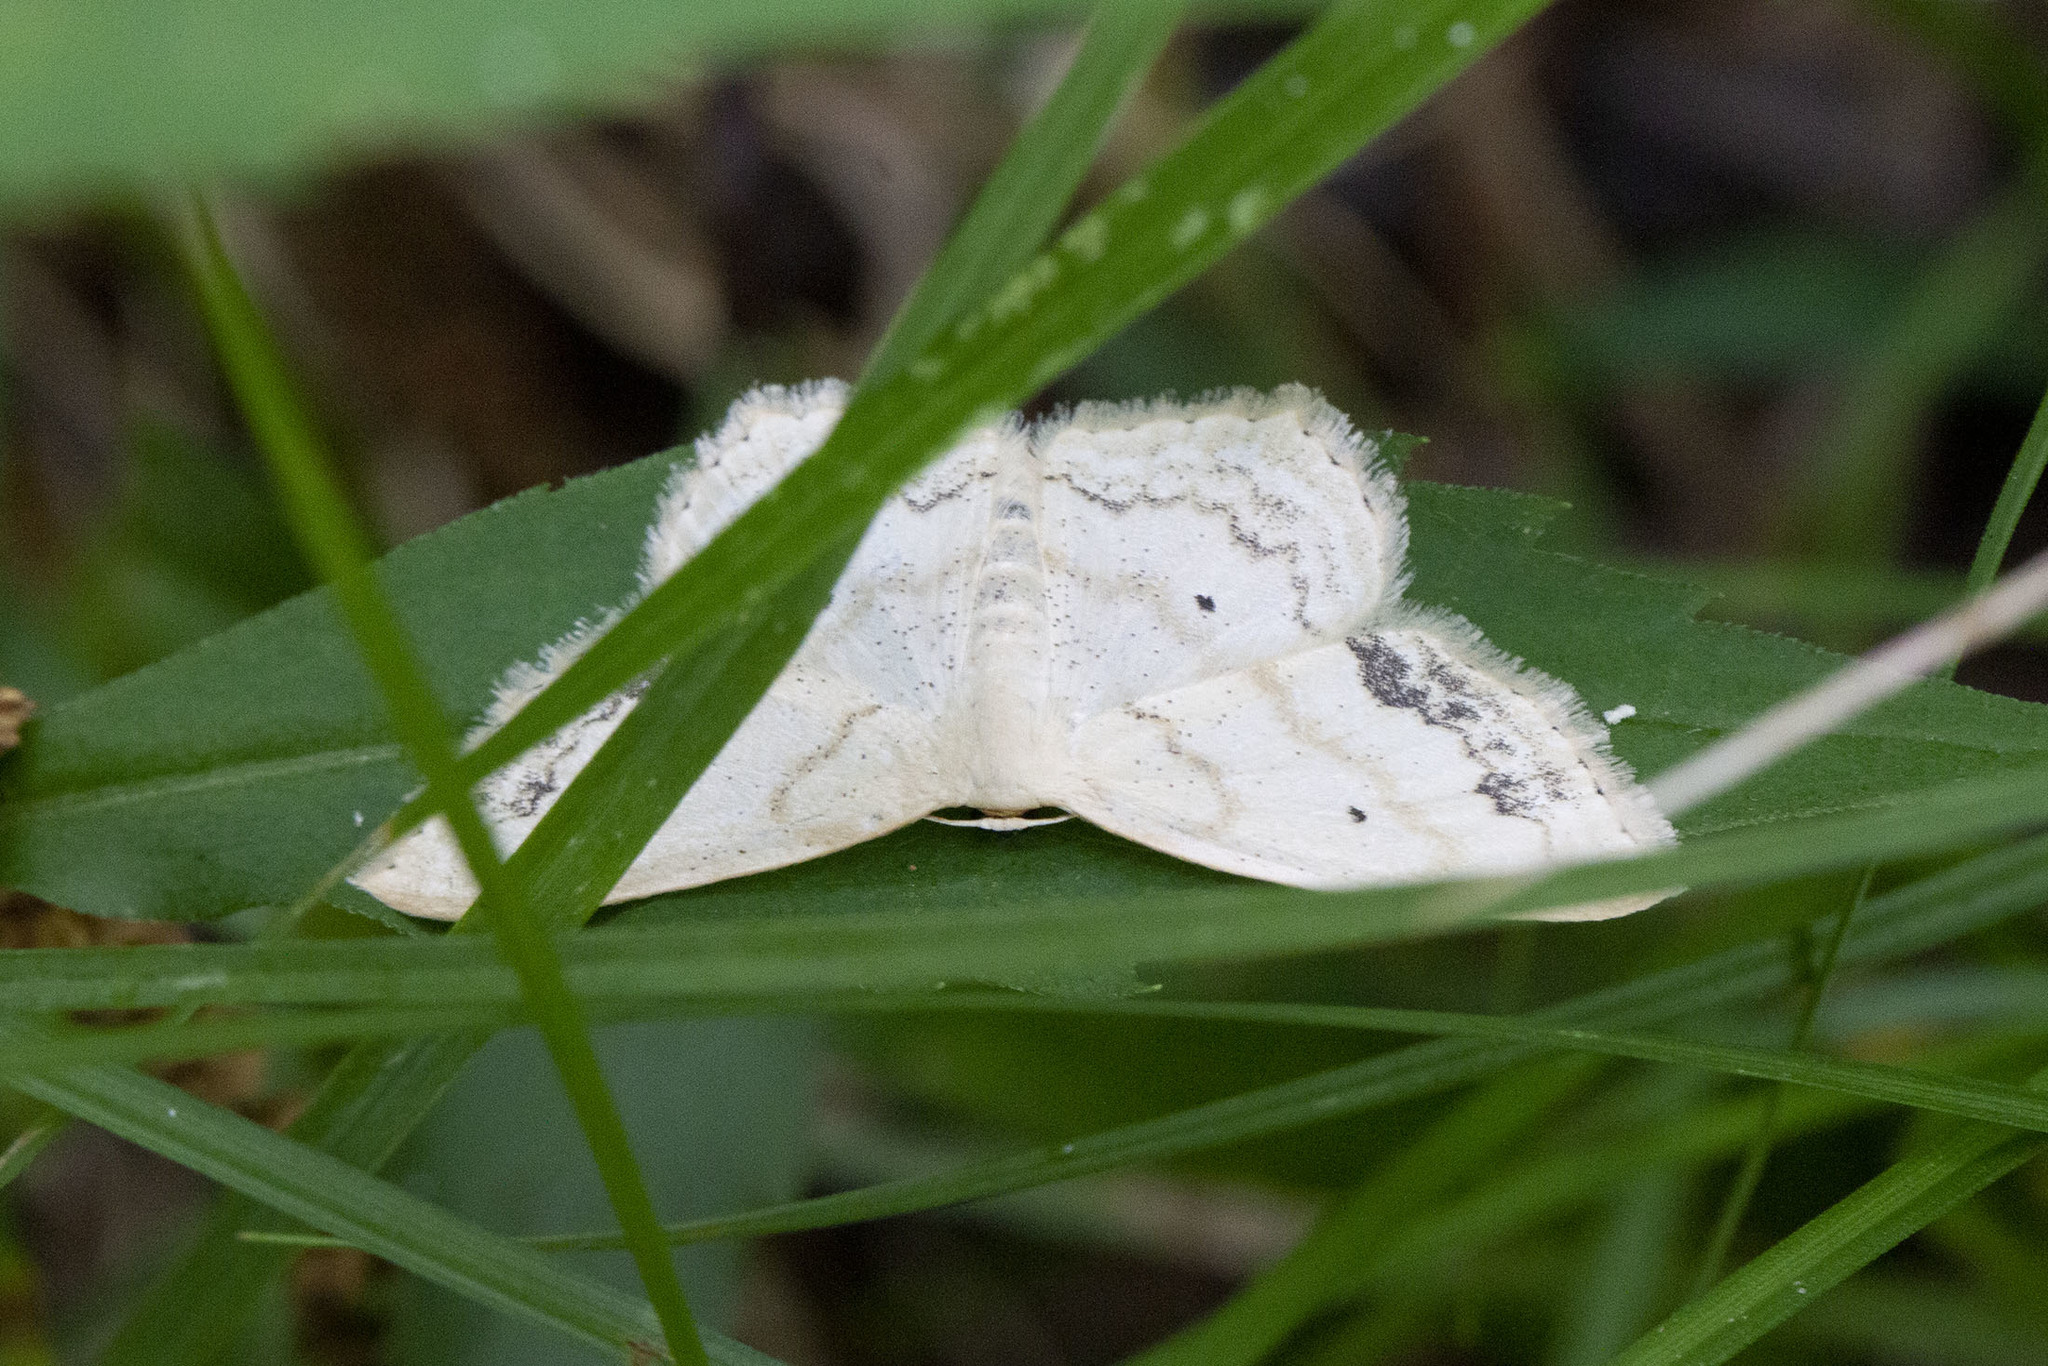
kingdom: Animalia
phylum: Arthropoda
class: Insecta
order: Lepidoptera
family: Geometridae
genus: Scopula
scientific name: Scopula limboundata
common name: Large lace border
